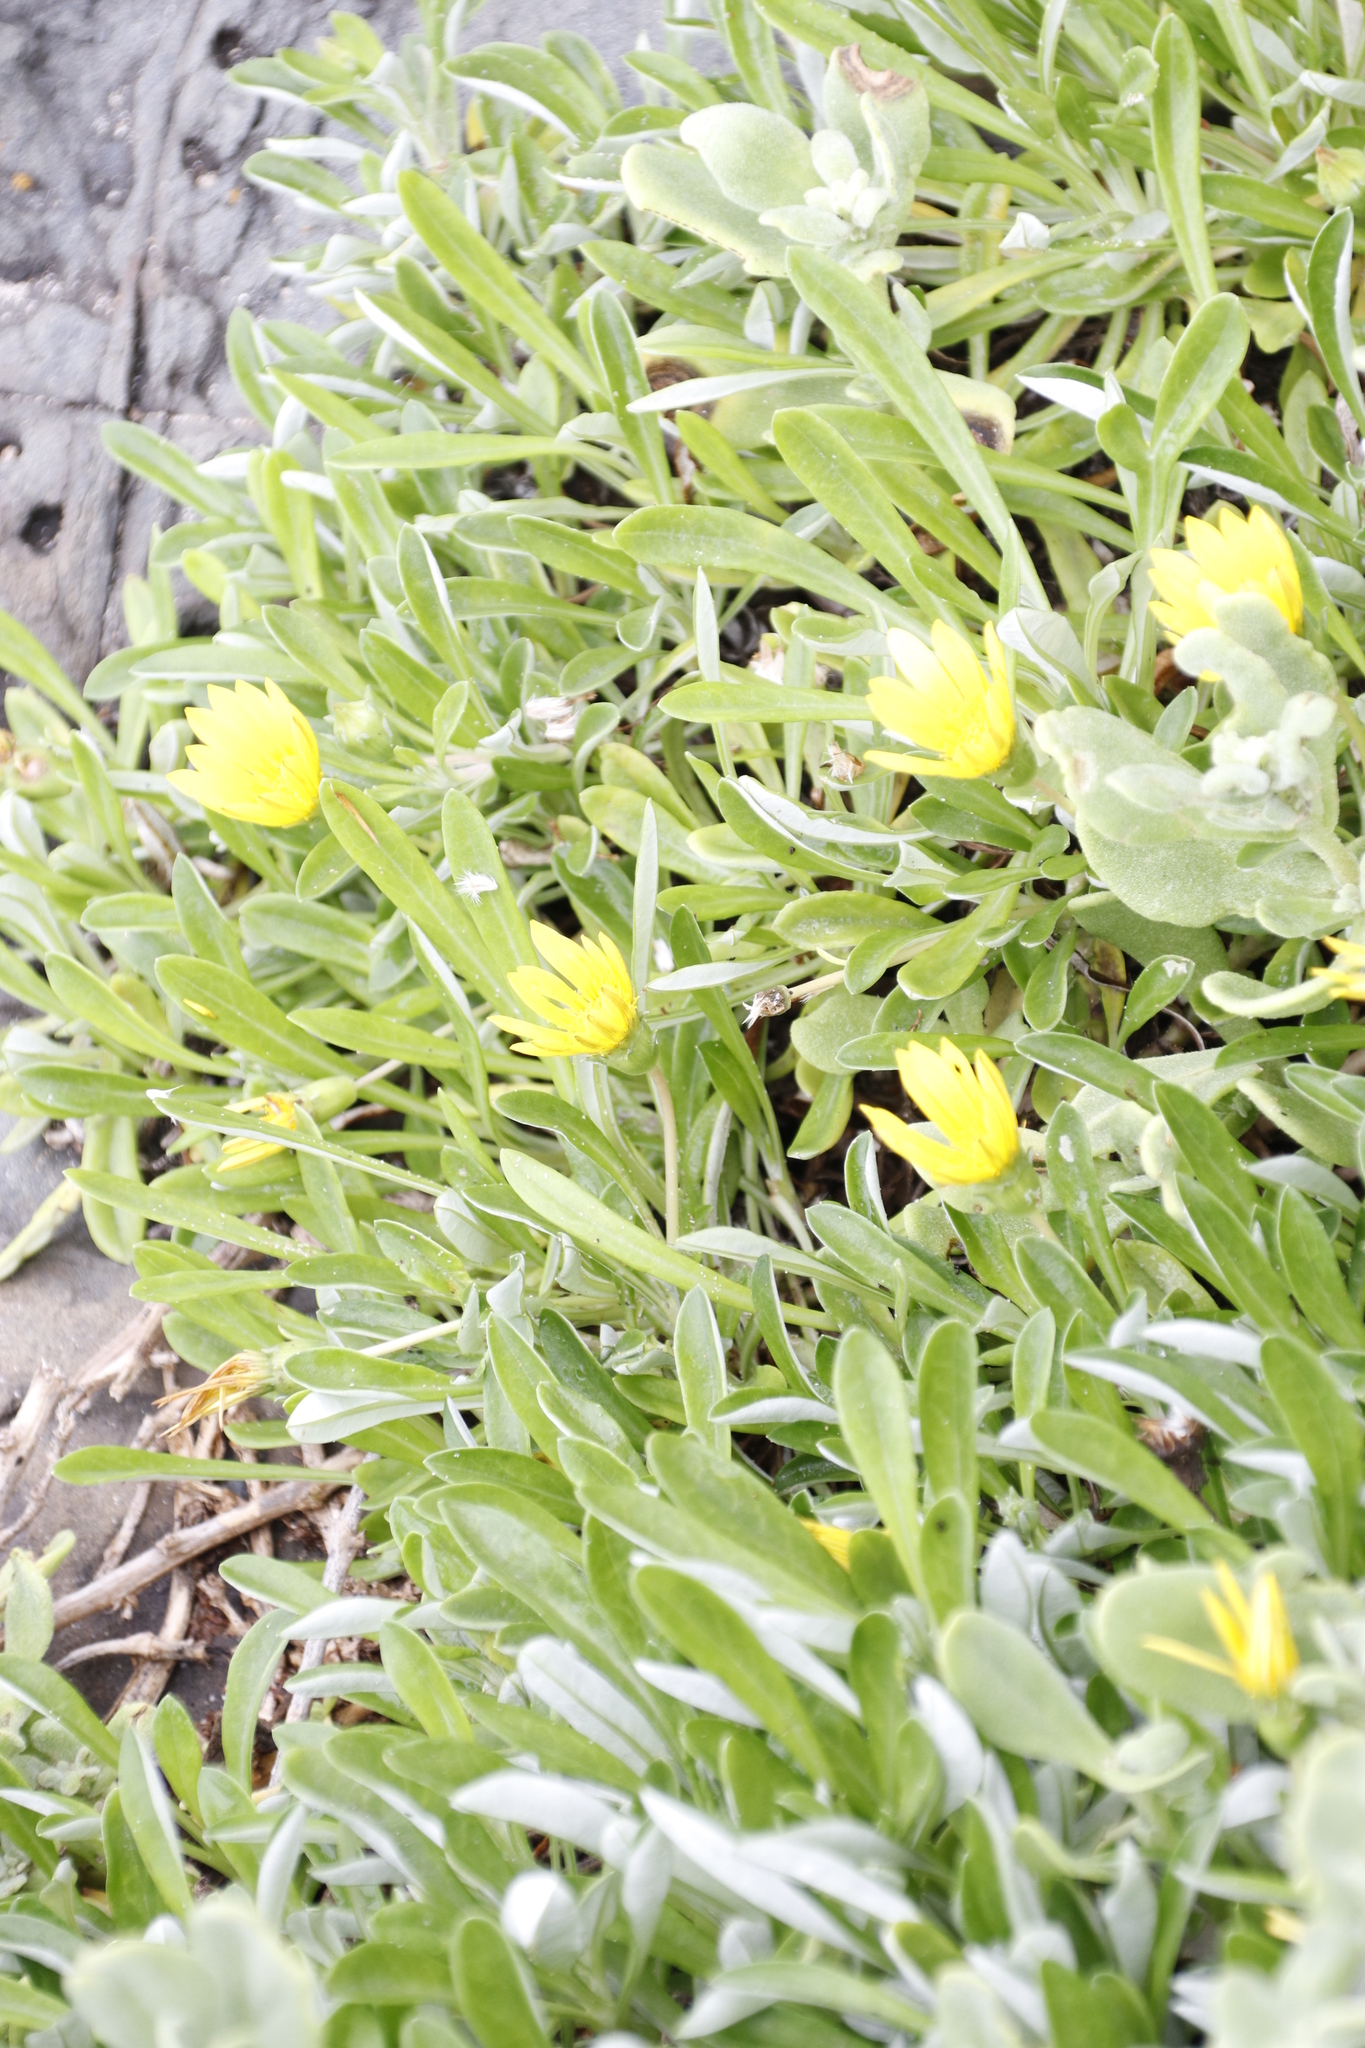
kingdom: Plantae
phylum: Tracheophyta
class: Magnoliopsida
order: Asterales
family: Asteraceae
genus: Gazania
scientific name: Gazania rigens
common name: Treasureflower
